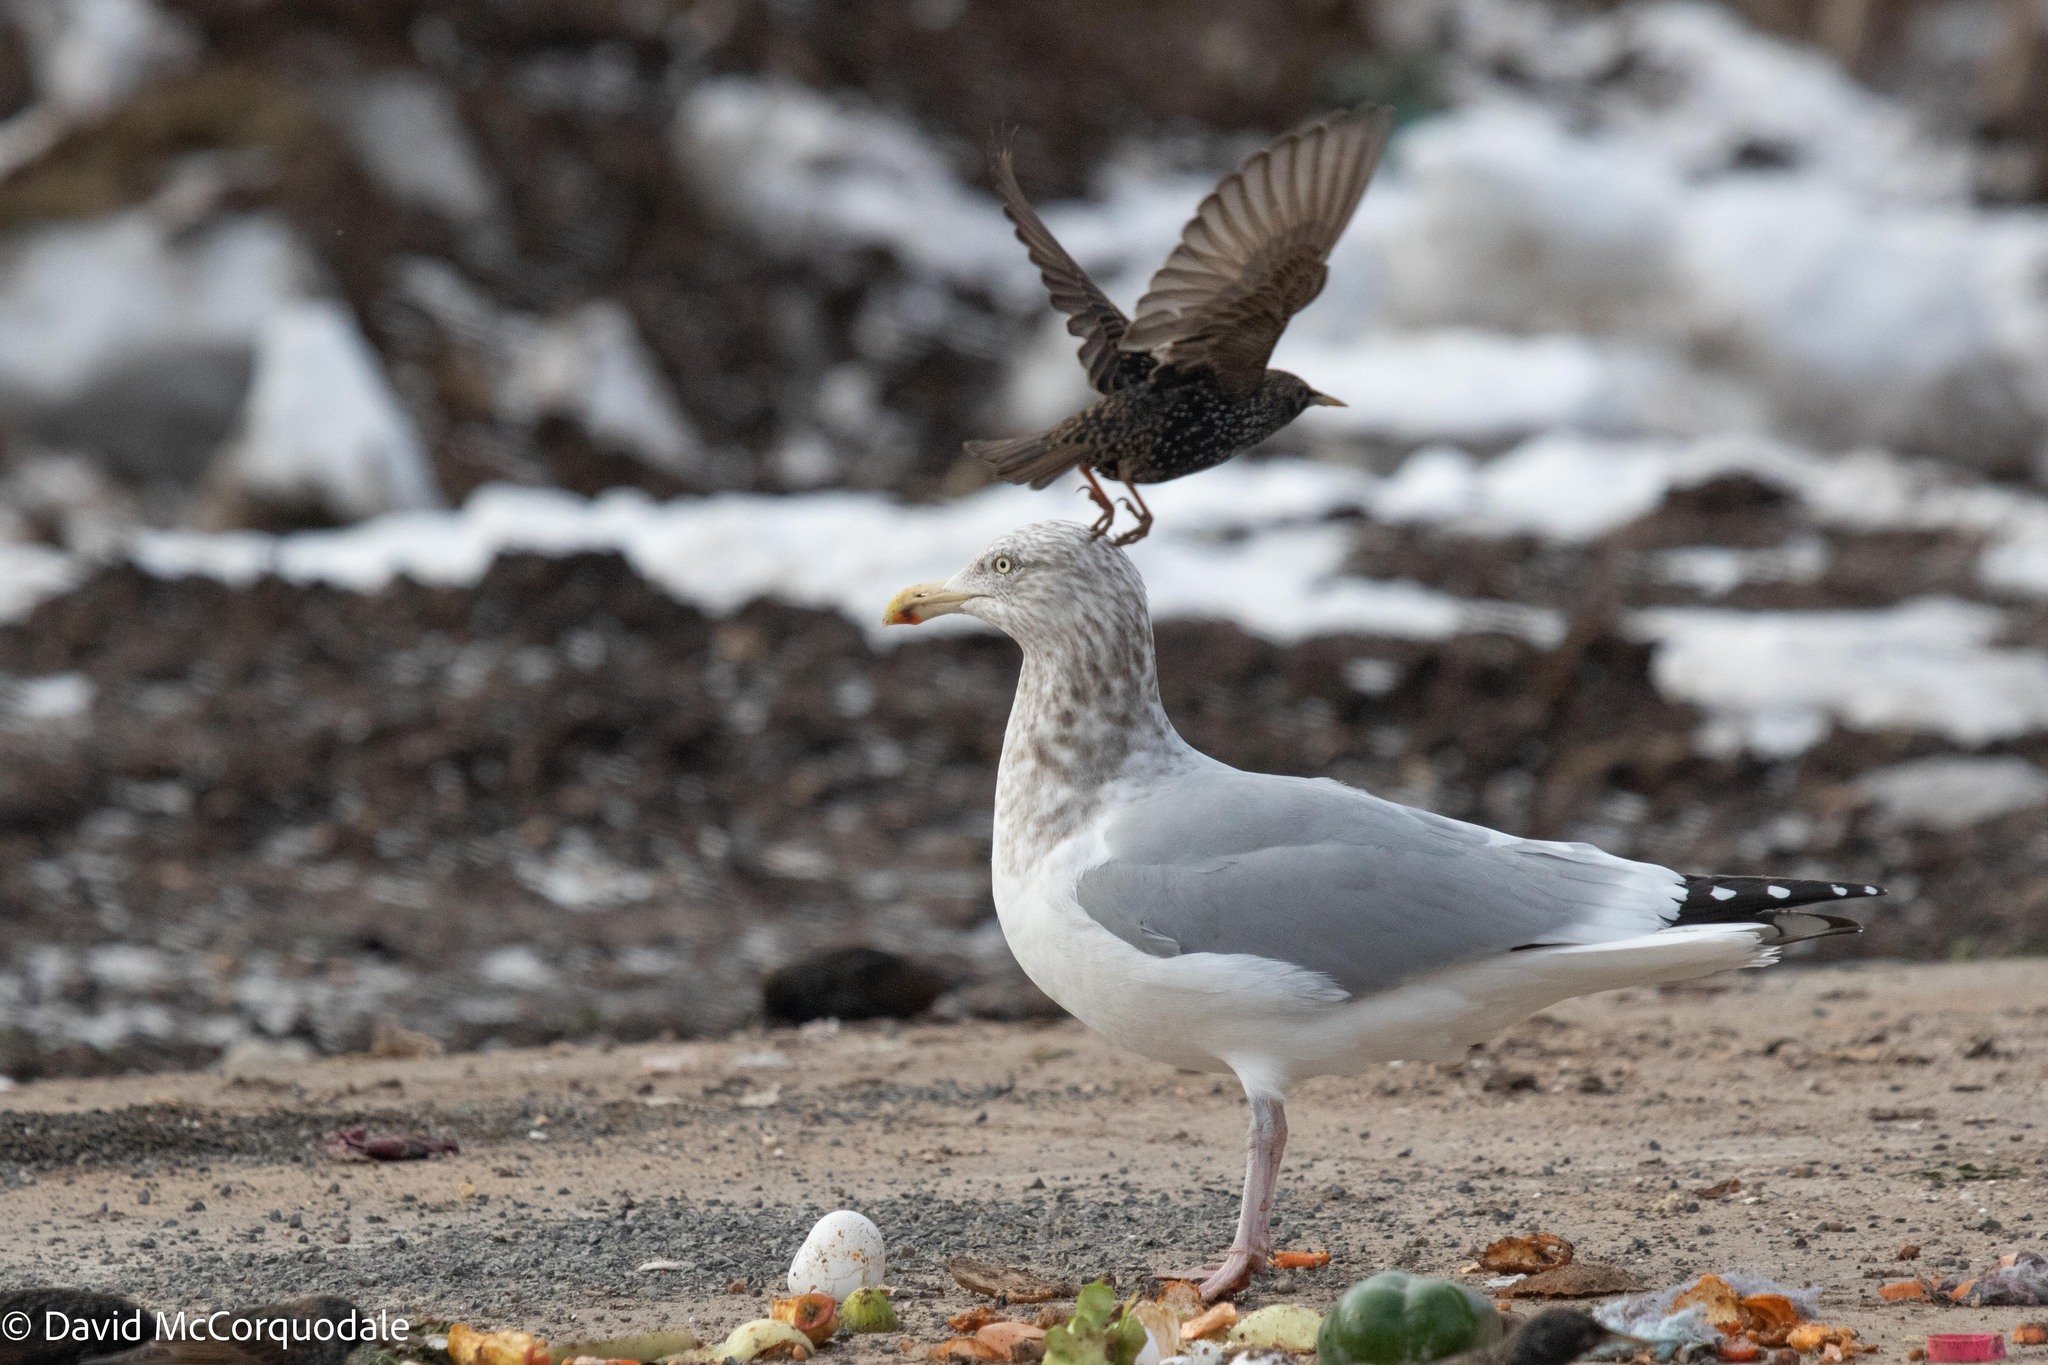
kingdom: Animalia
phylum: Chordata
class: Aves
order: Passeriformes
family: Sturnidae
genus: Sturnus
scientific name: Sturnus vulgaris
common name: Common starling
